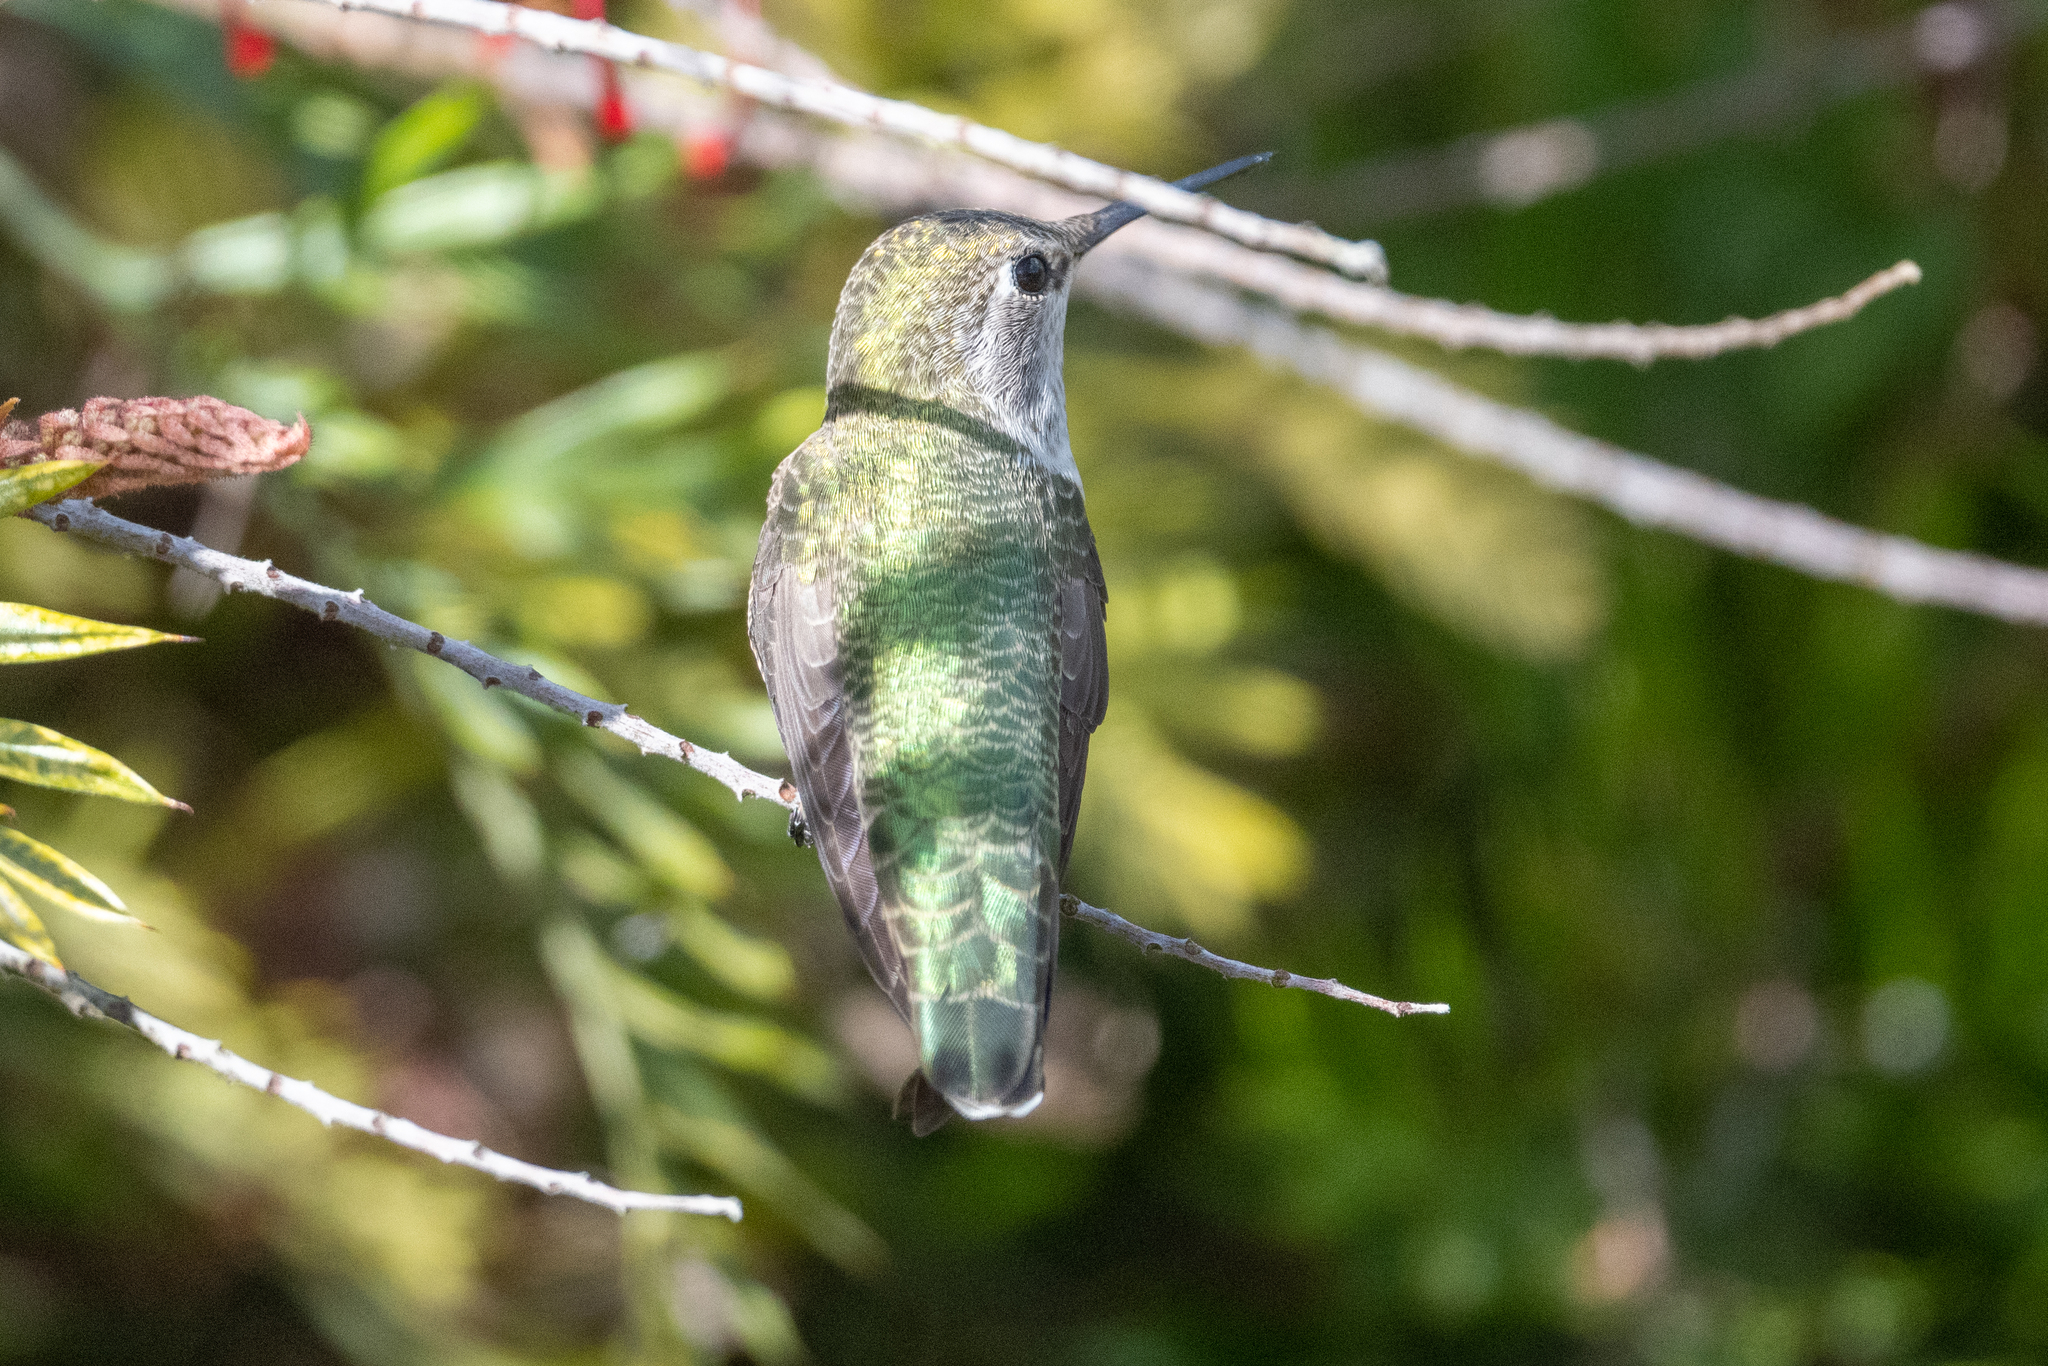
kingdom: Animalia
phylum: Chordata
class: Aves
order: Apodiformes
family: Trochilidae
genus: Calypte
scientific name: Calypte anna
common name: Anna's hummingbird
